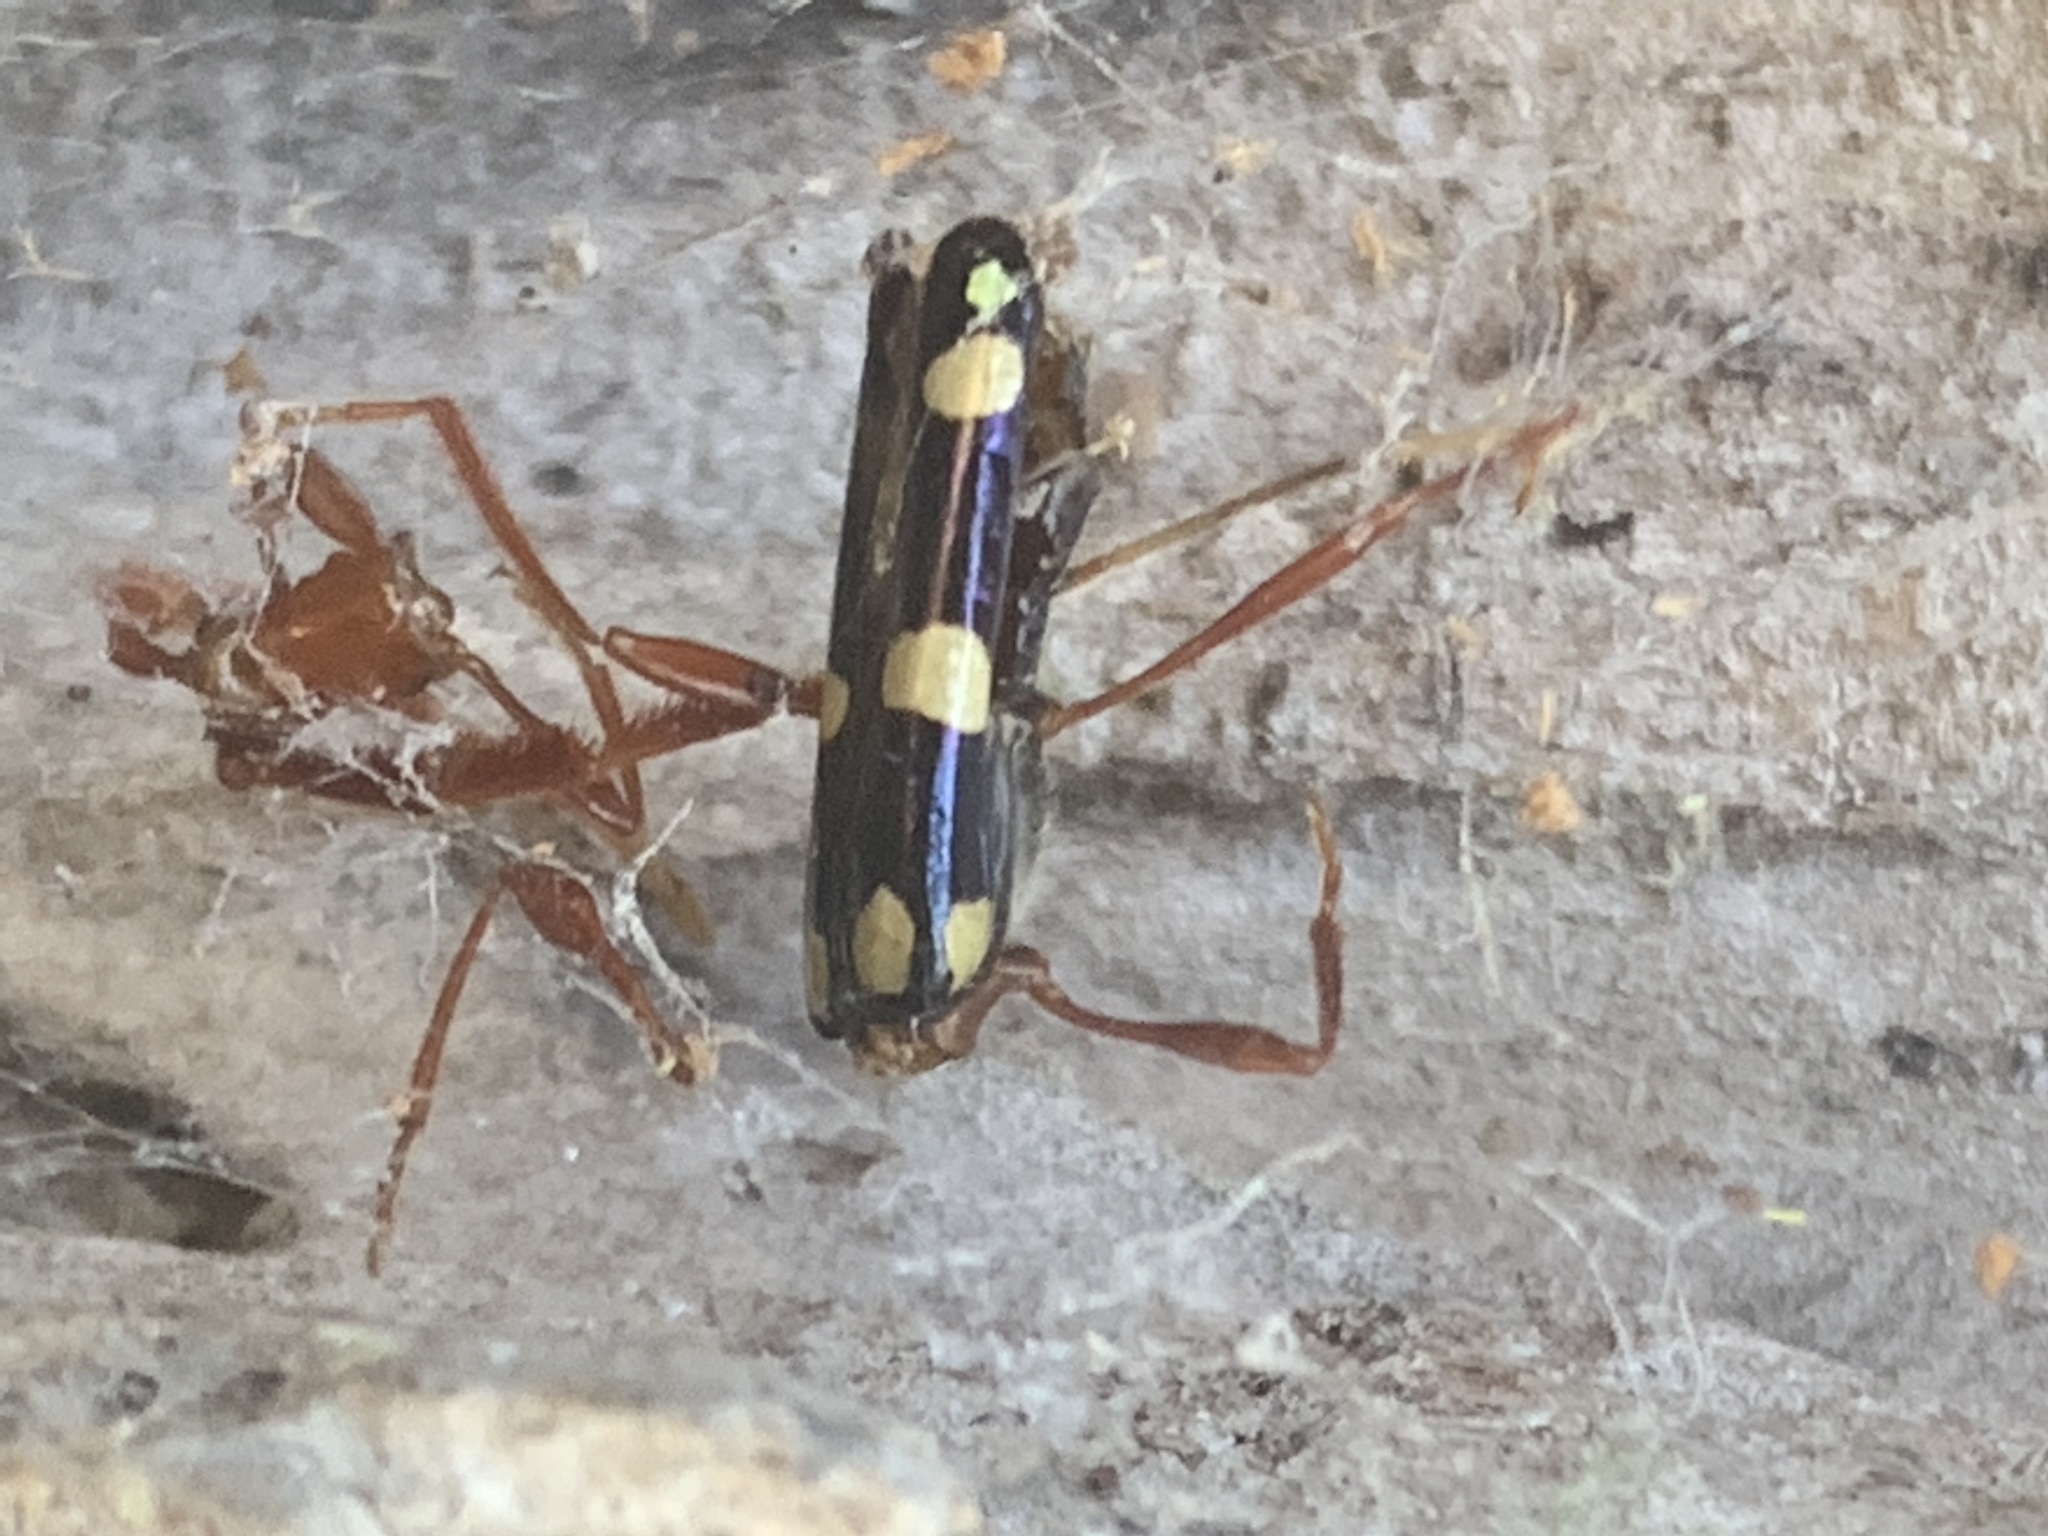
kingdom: Animalia
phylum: Arthropoda
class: Insecta
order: Coleoptera
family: Cerambycidae
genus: Achenoderus
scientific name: Achenoderus octomaculatus
